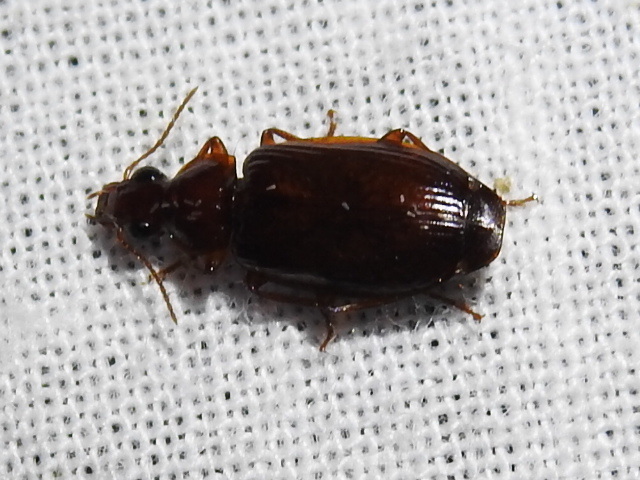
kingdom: Animalia
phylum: Arthropoda
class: Insecta
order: Coleoptera
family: Carabidae
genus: Plochionus
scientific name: Plochionus timidus
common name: Timid harp ground beetle
